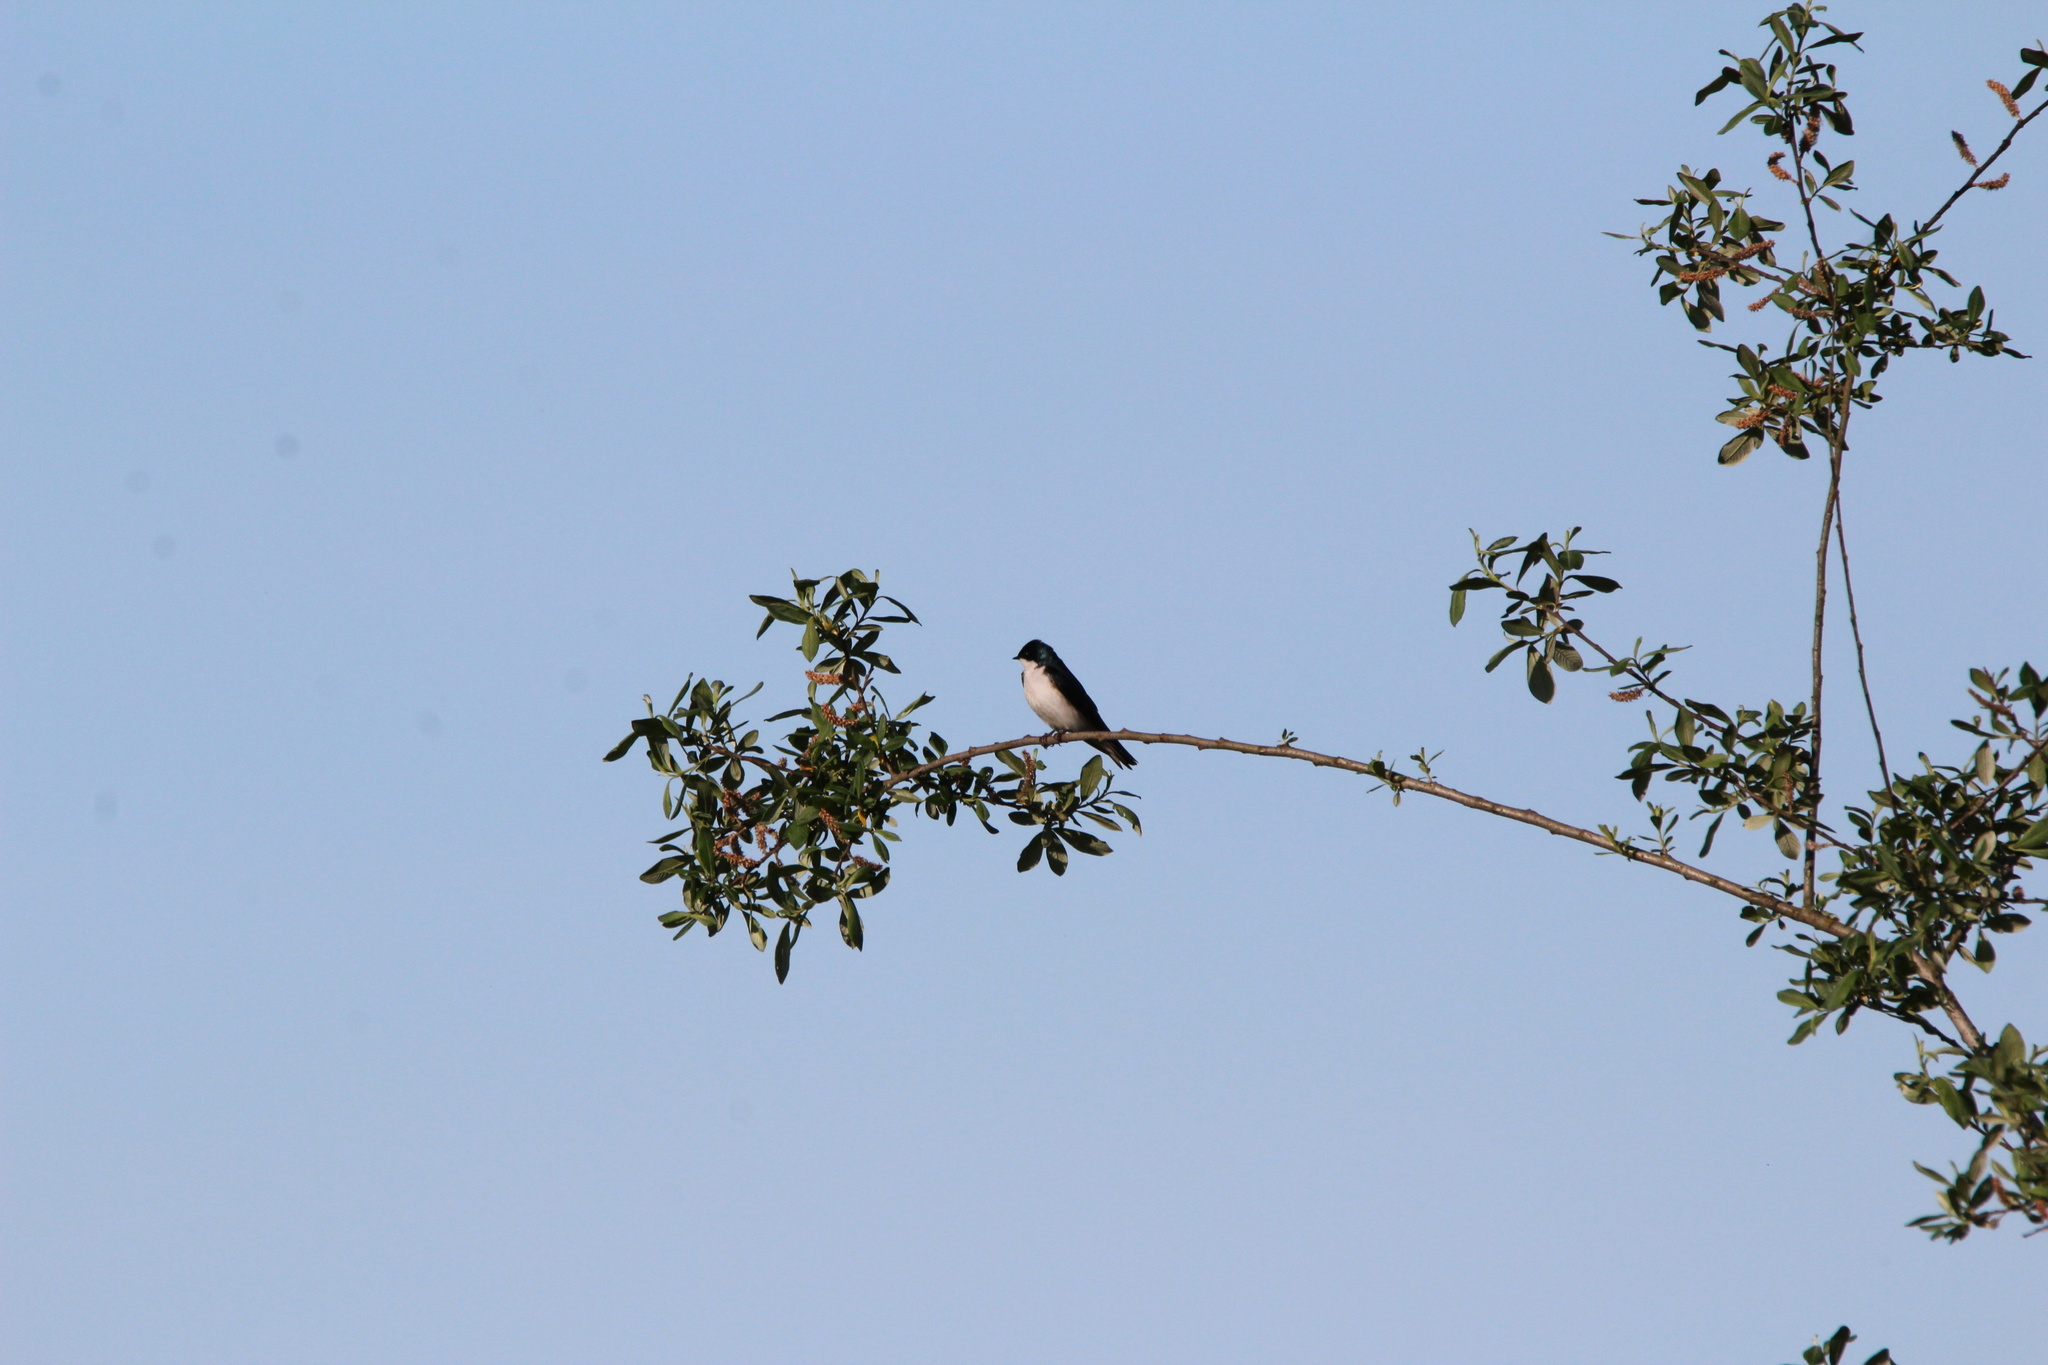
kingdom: Animalia
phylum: Chordata
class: Aves
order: Passeriformes
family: Hirundinidae
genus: Tachycineta
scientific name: Tachycineta bicolor
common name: Tree swallow
